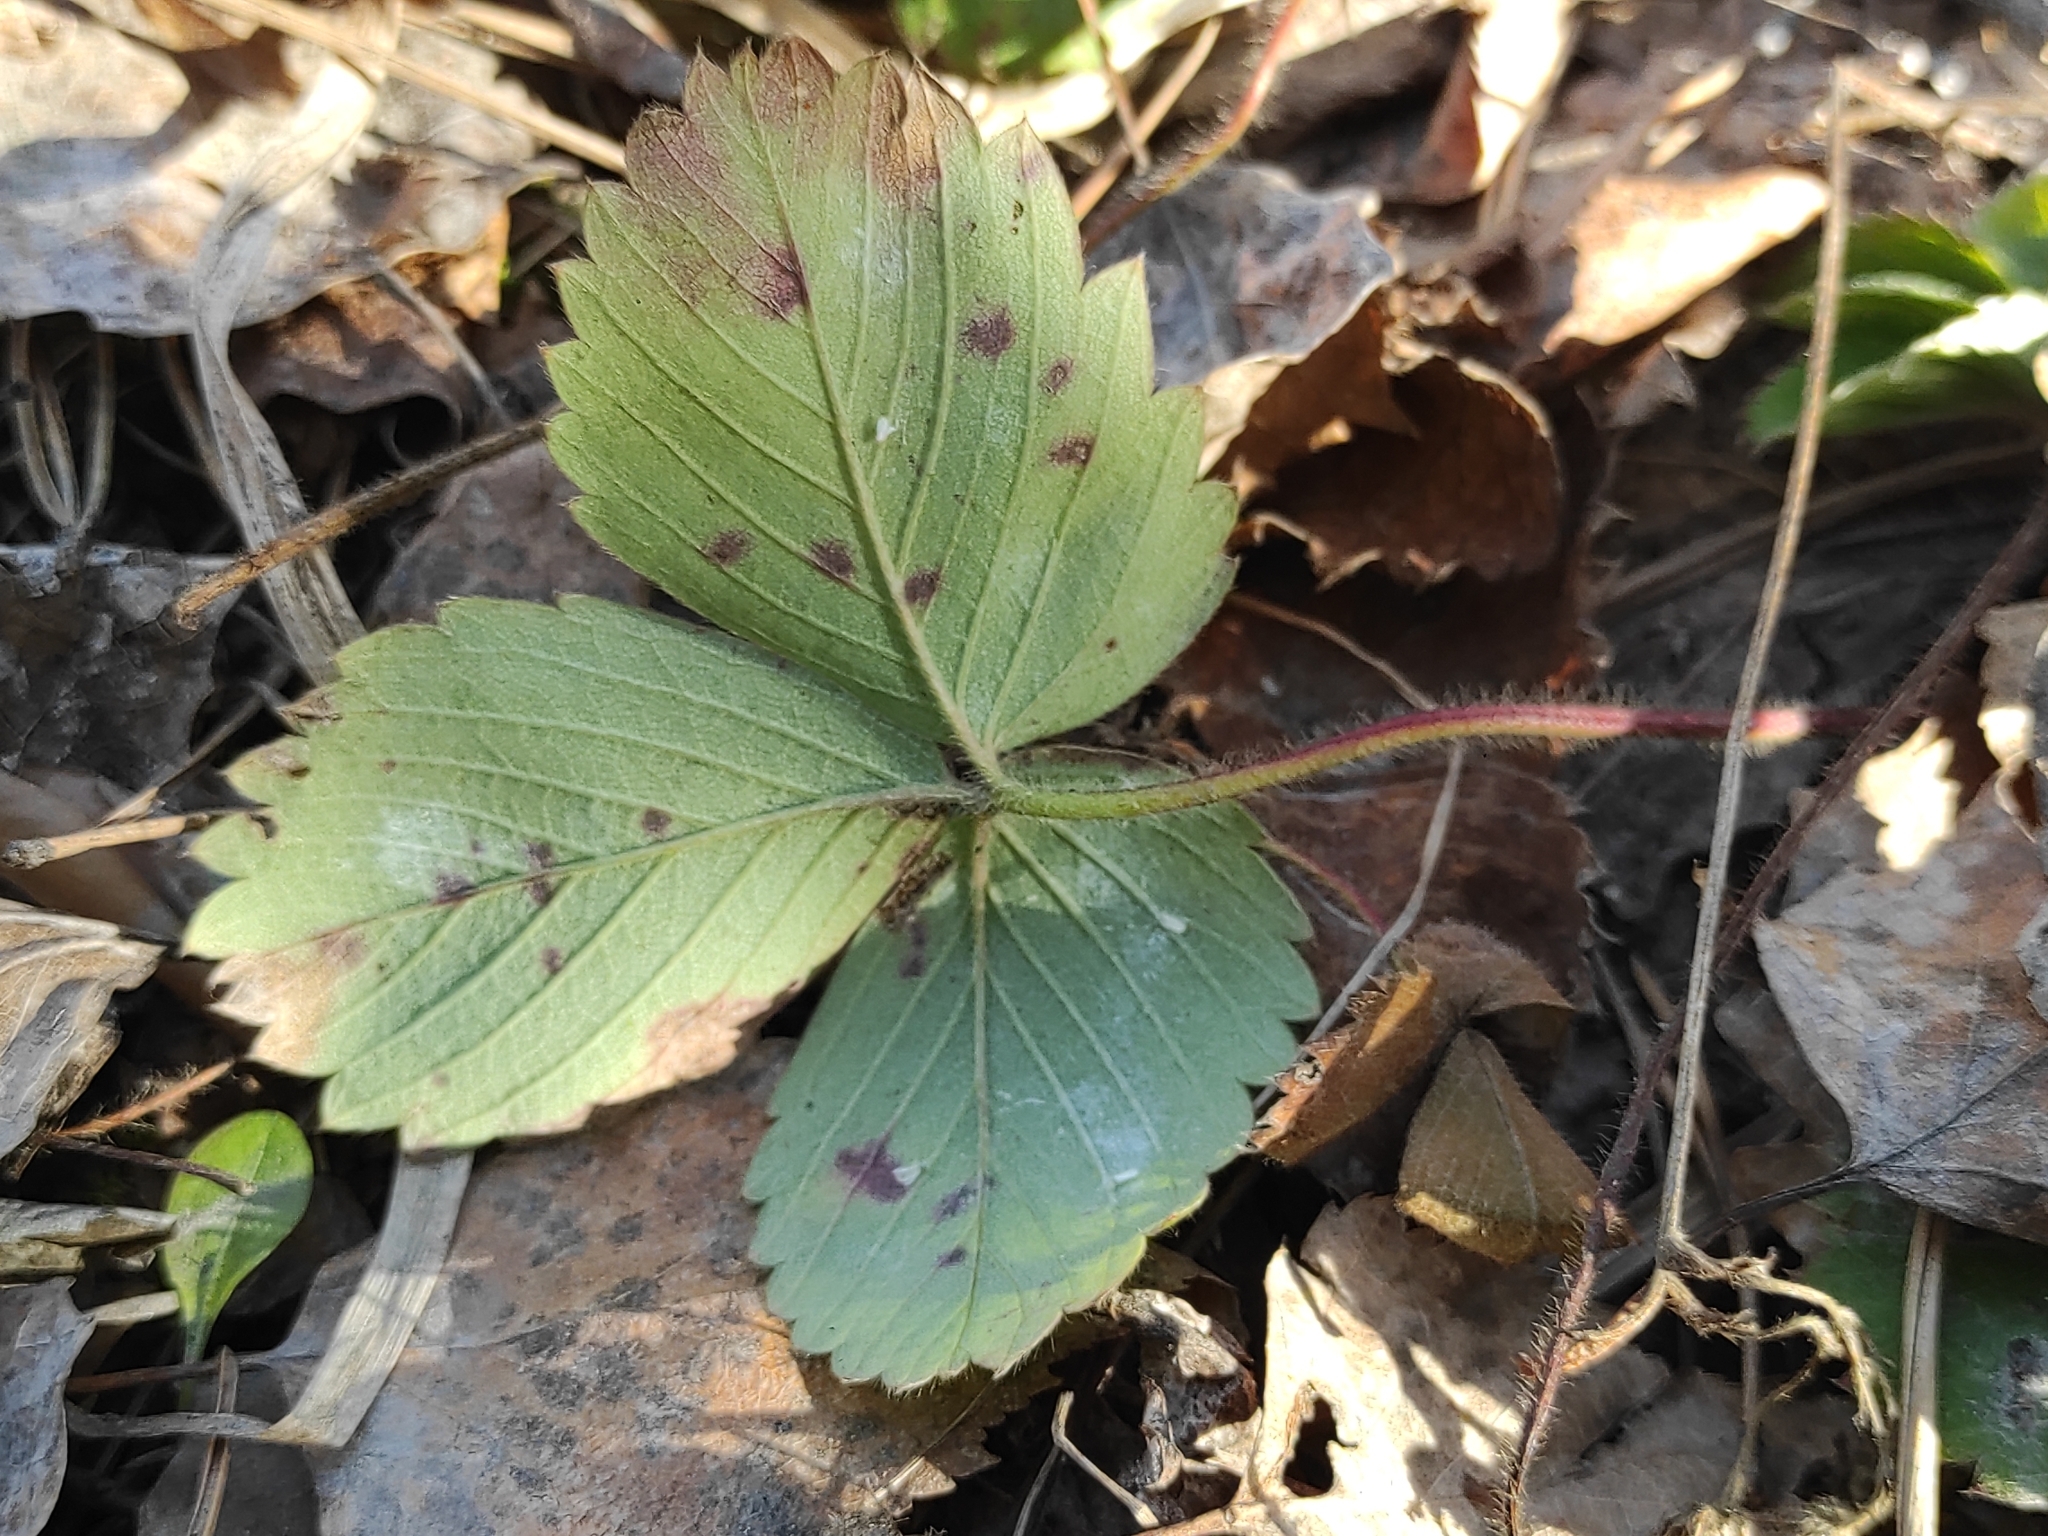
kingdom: Plantae
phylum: Tracheophyta
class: Magnoliopsida
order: Rosales
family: Rosaceae
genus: Fragaria
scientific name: Fragaria vesca
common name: Wild strawberry
